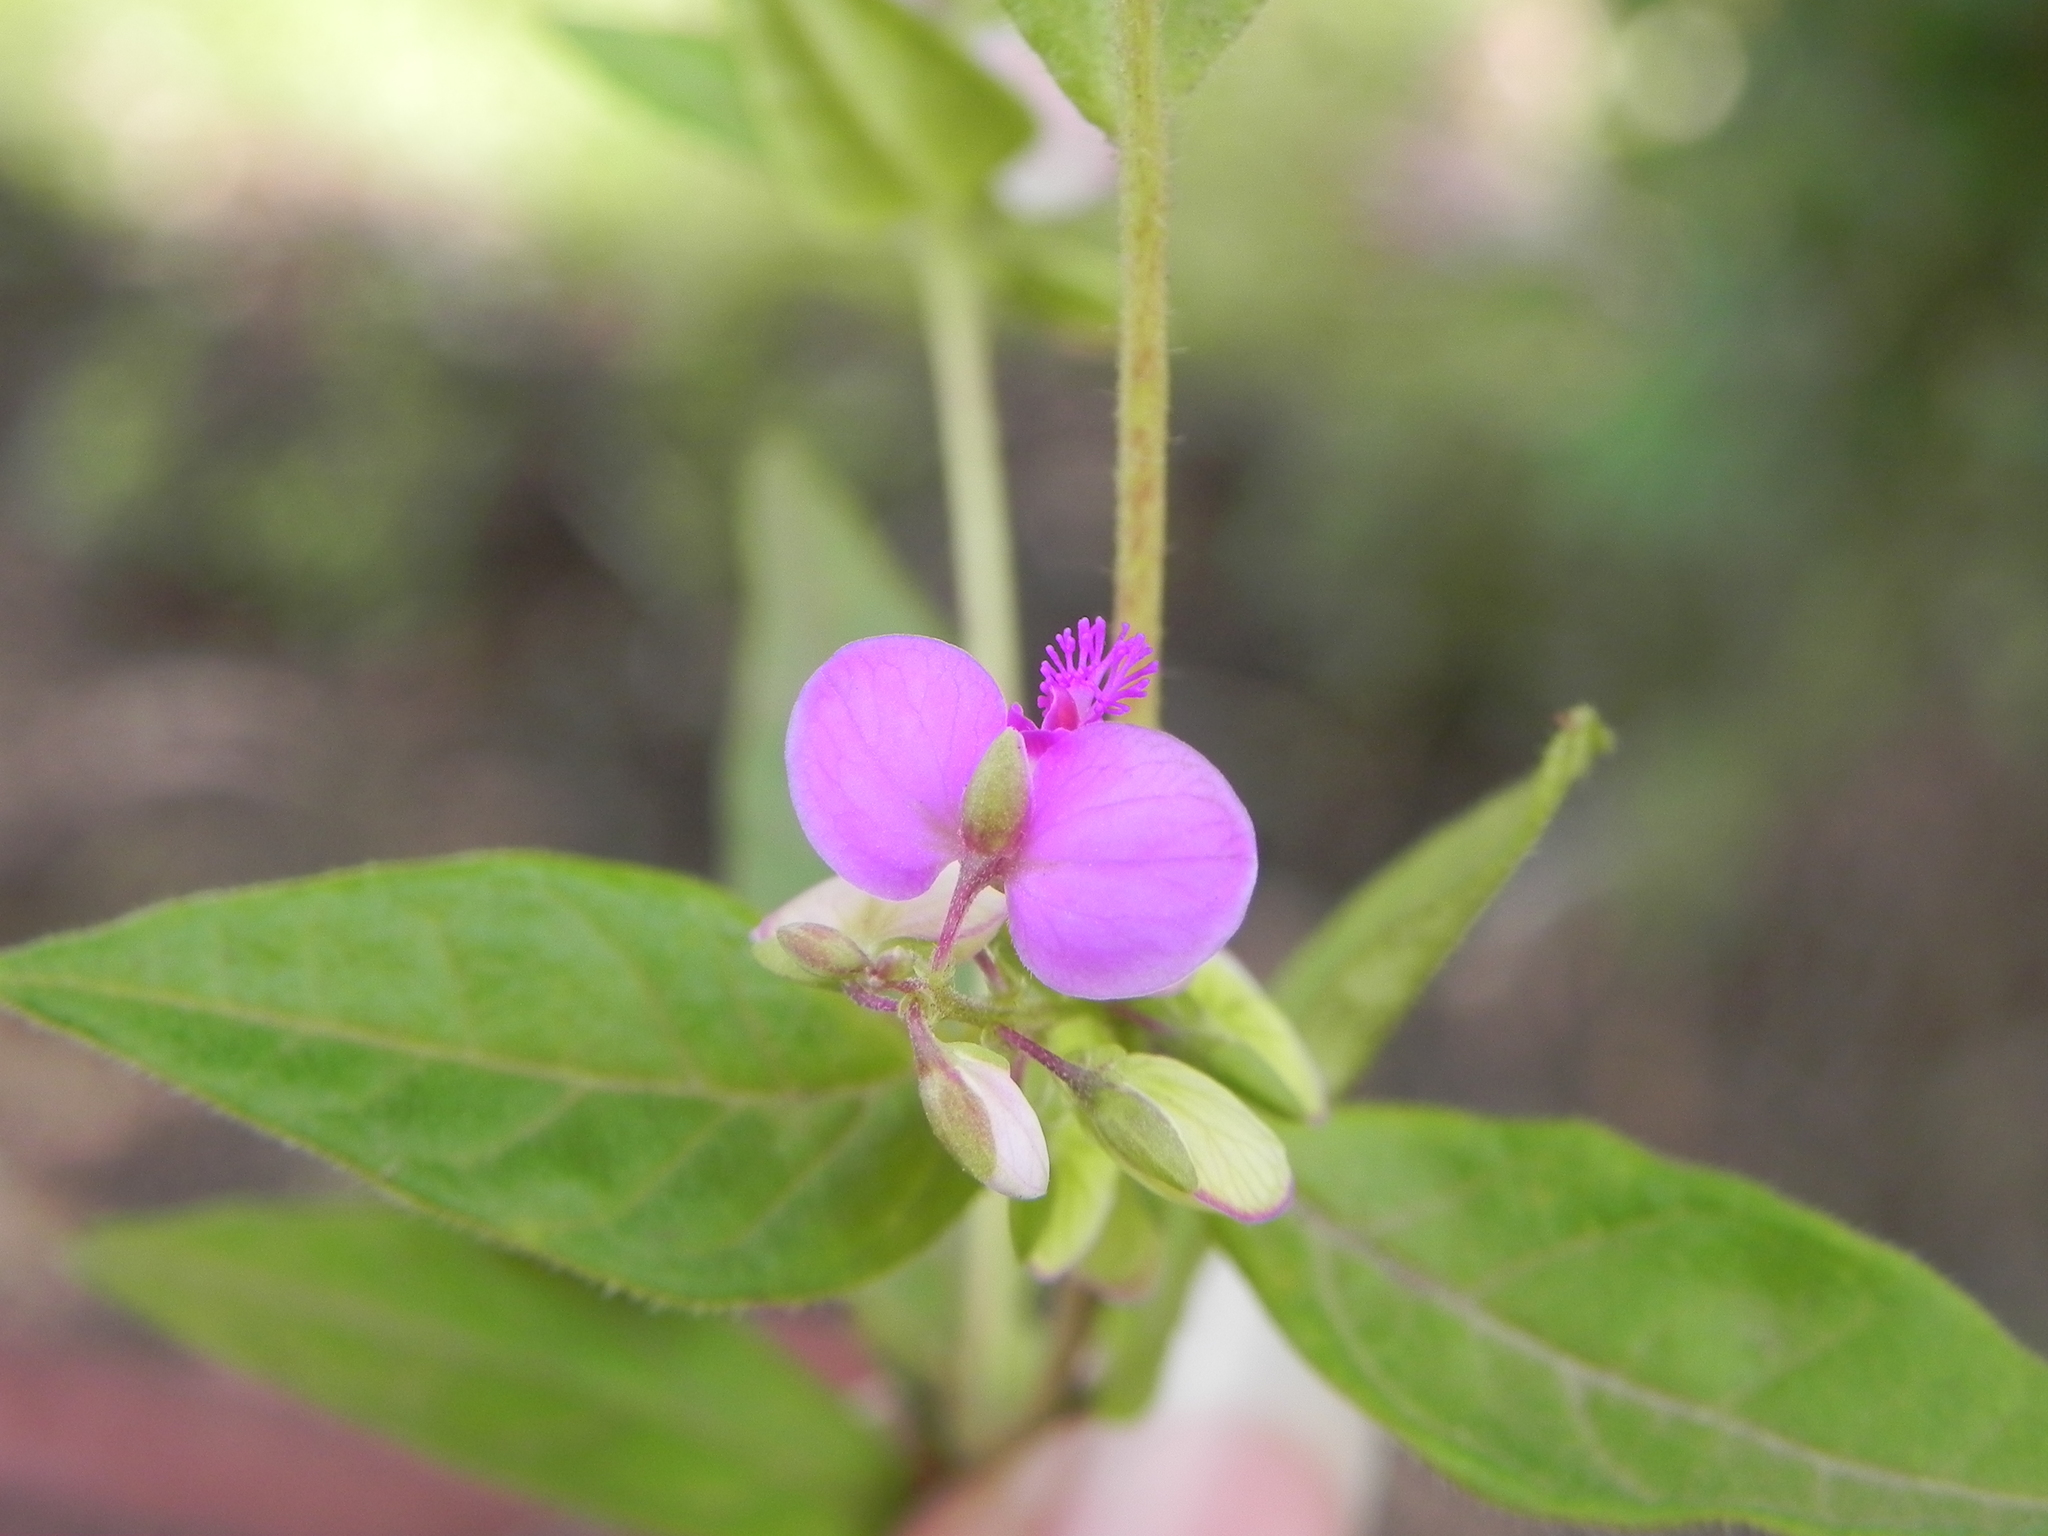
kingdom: Plantae
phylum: Tracheophyta
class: Magnoliopsida
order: Fabales
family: Polygalaceae
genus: Polygala
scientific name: Polygala persicariifolia
